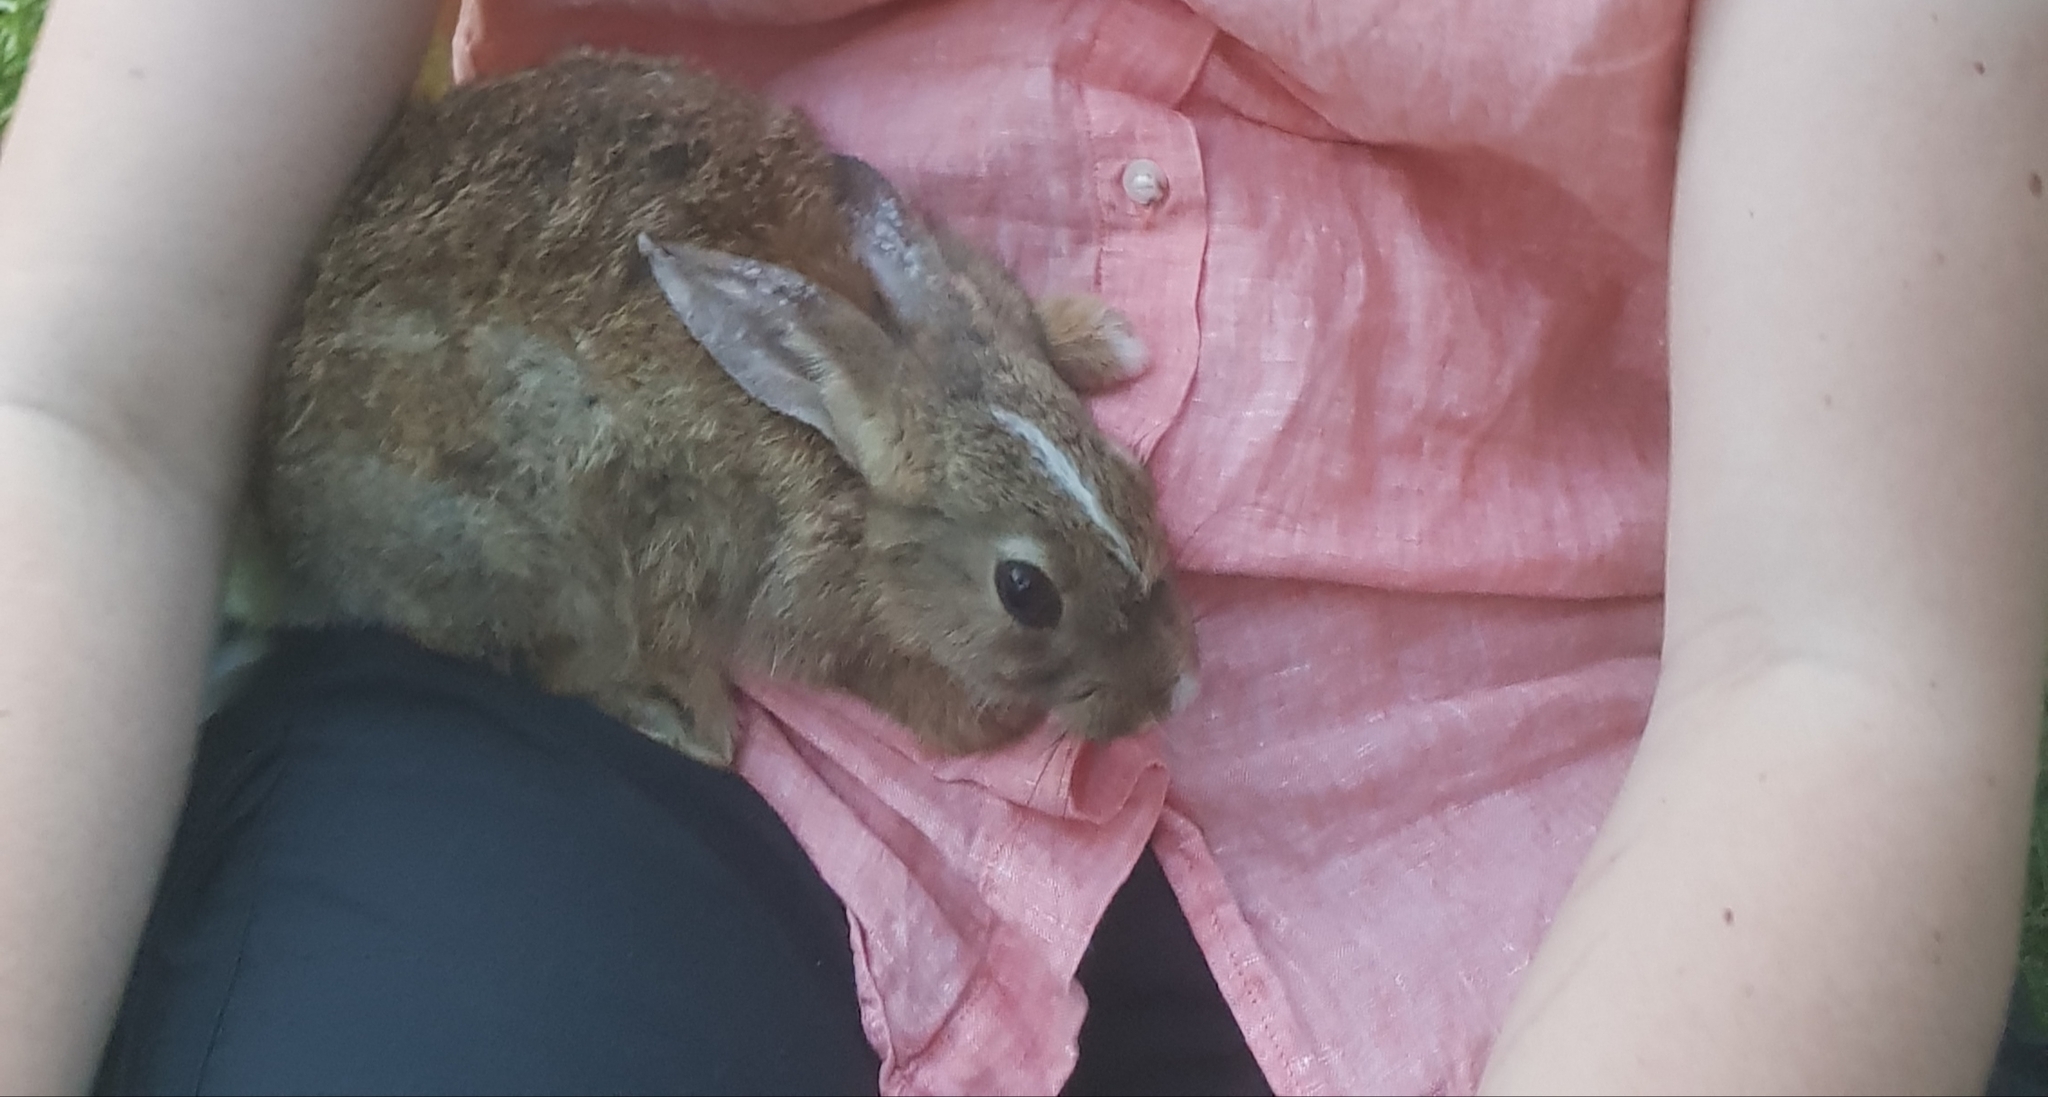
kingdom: Animalia
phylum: Chordata
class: Mammalia
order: Lagomorpha
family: Leporidae
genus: Oryctolagus
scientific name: Oryctolagus cuniculus
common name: European rabbit
